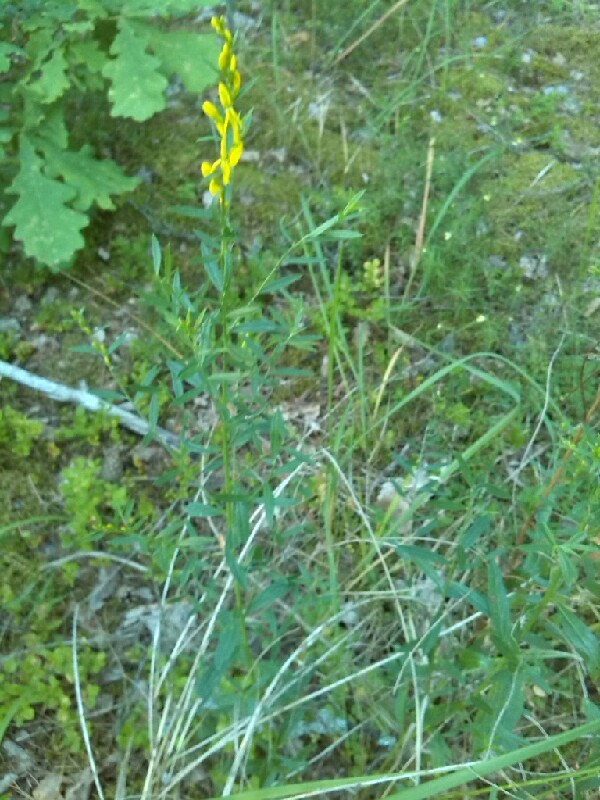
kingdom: Plantae
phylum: Tracheophyta
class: Magnoliopsida
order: Fabales
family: Fabaceae
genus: Genista
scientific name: Genista tinctoria
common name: Dyer's greenweed
